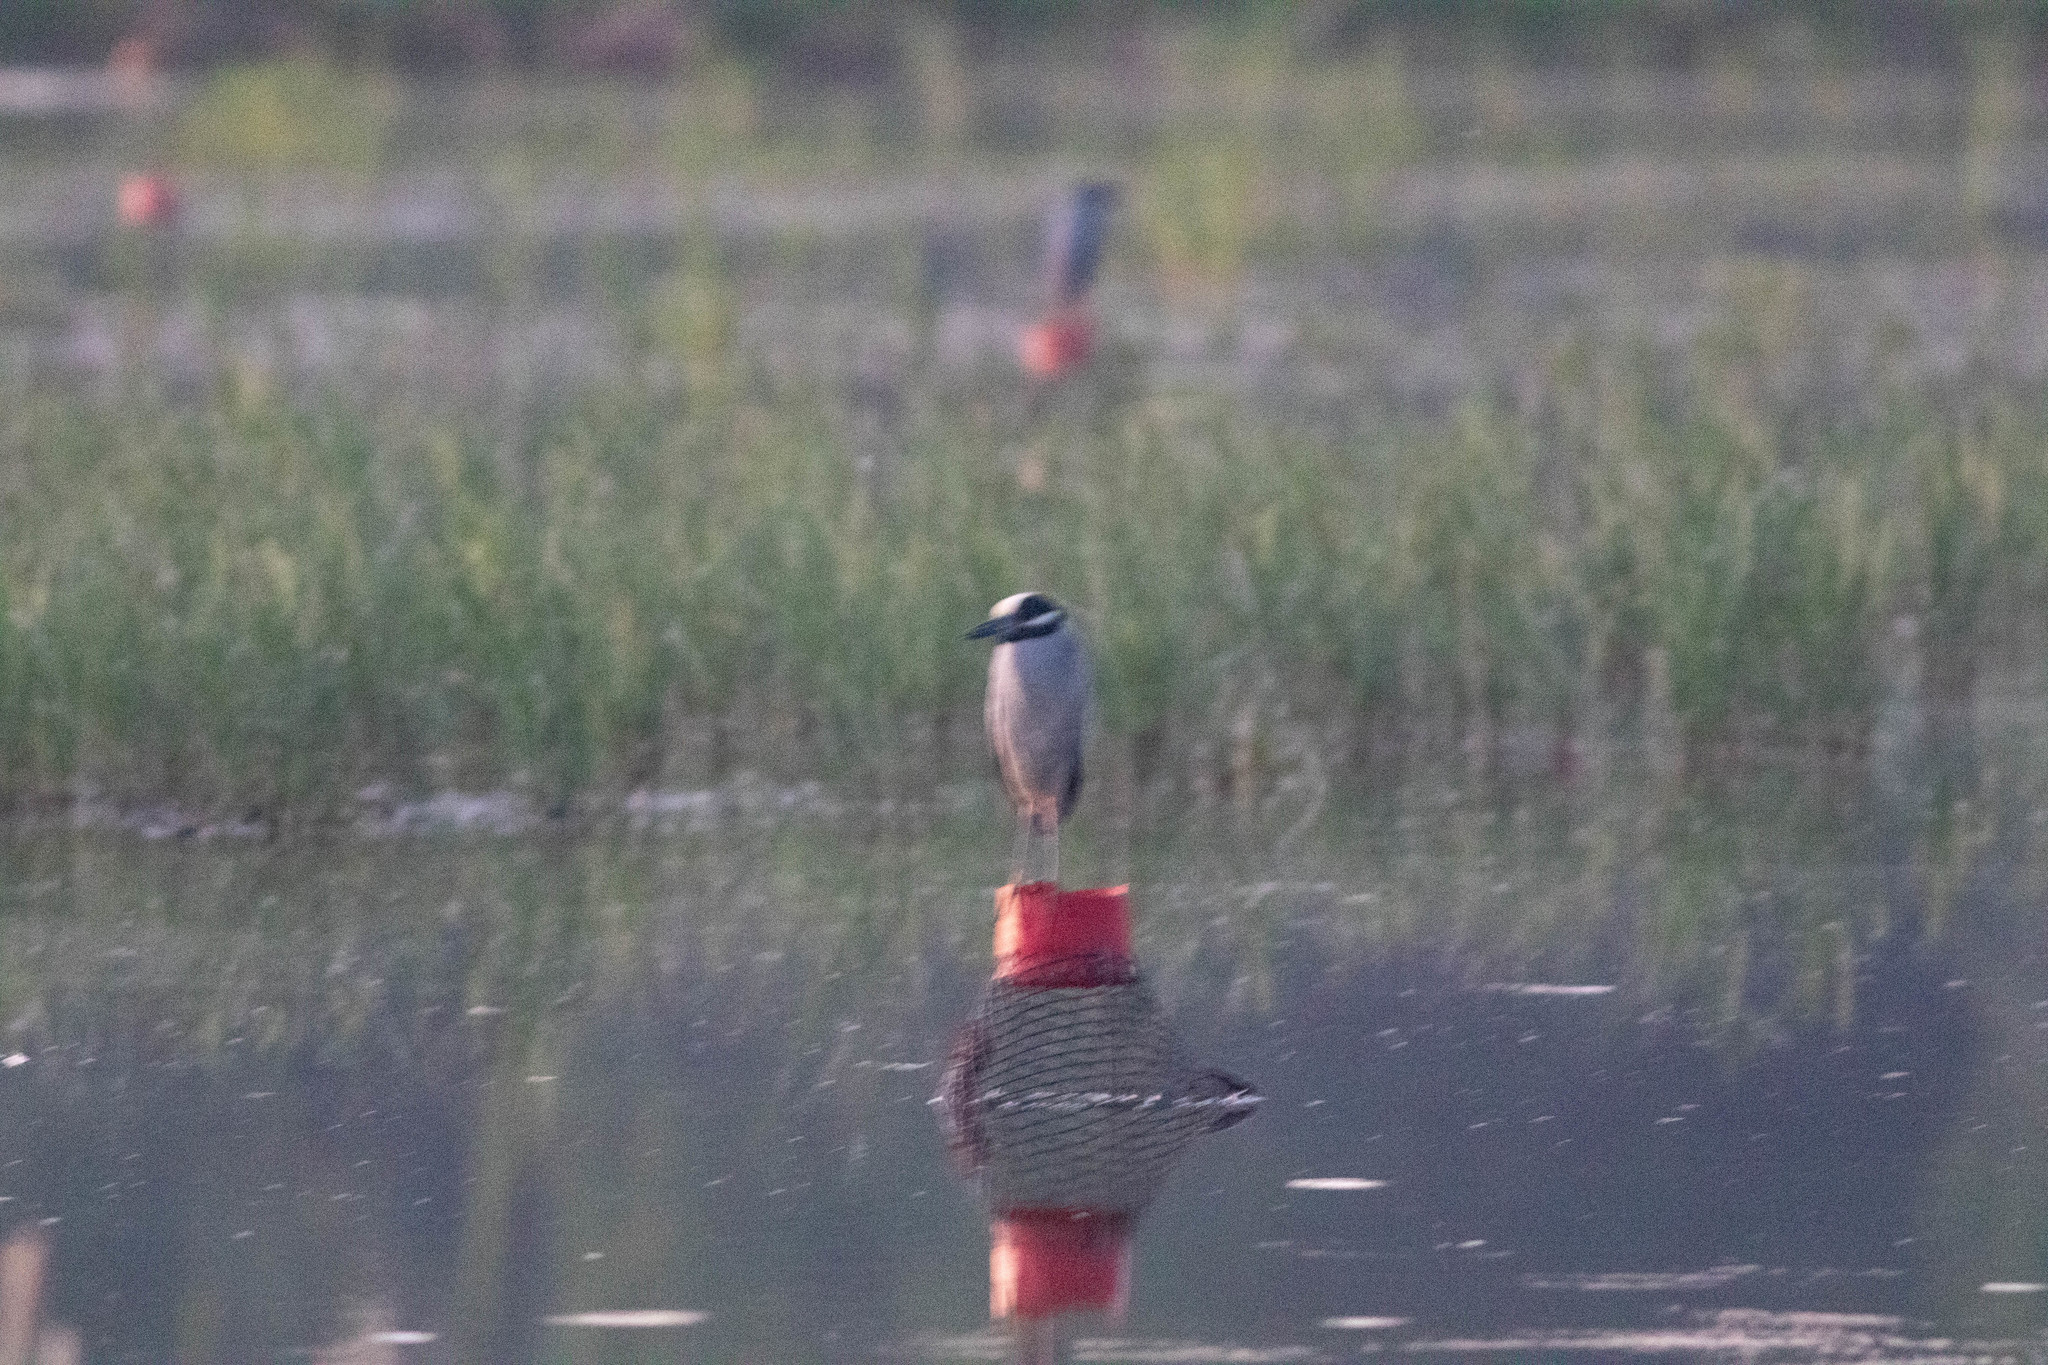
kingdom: Animalia
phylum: Chordata
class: Aves
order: Pelecaniformes
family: Ardeidae
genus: Nyctanassa
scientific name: Nyctanassa violacea
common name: Yellow-crowned night heron
